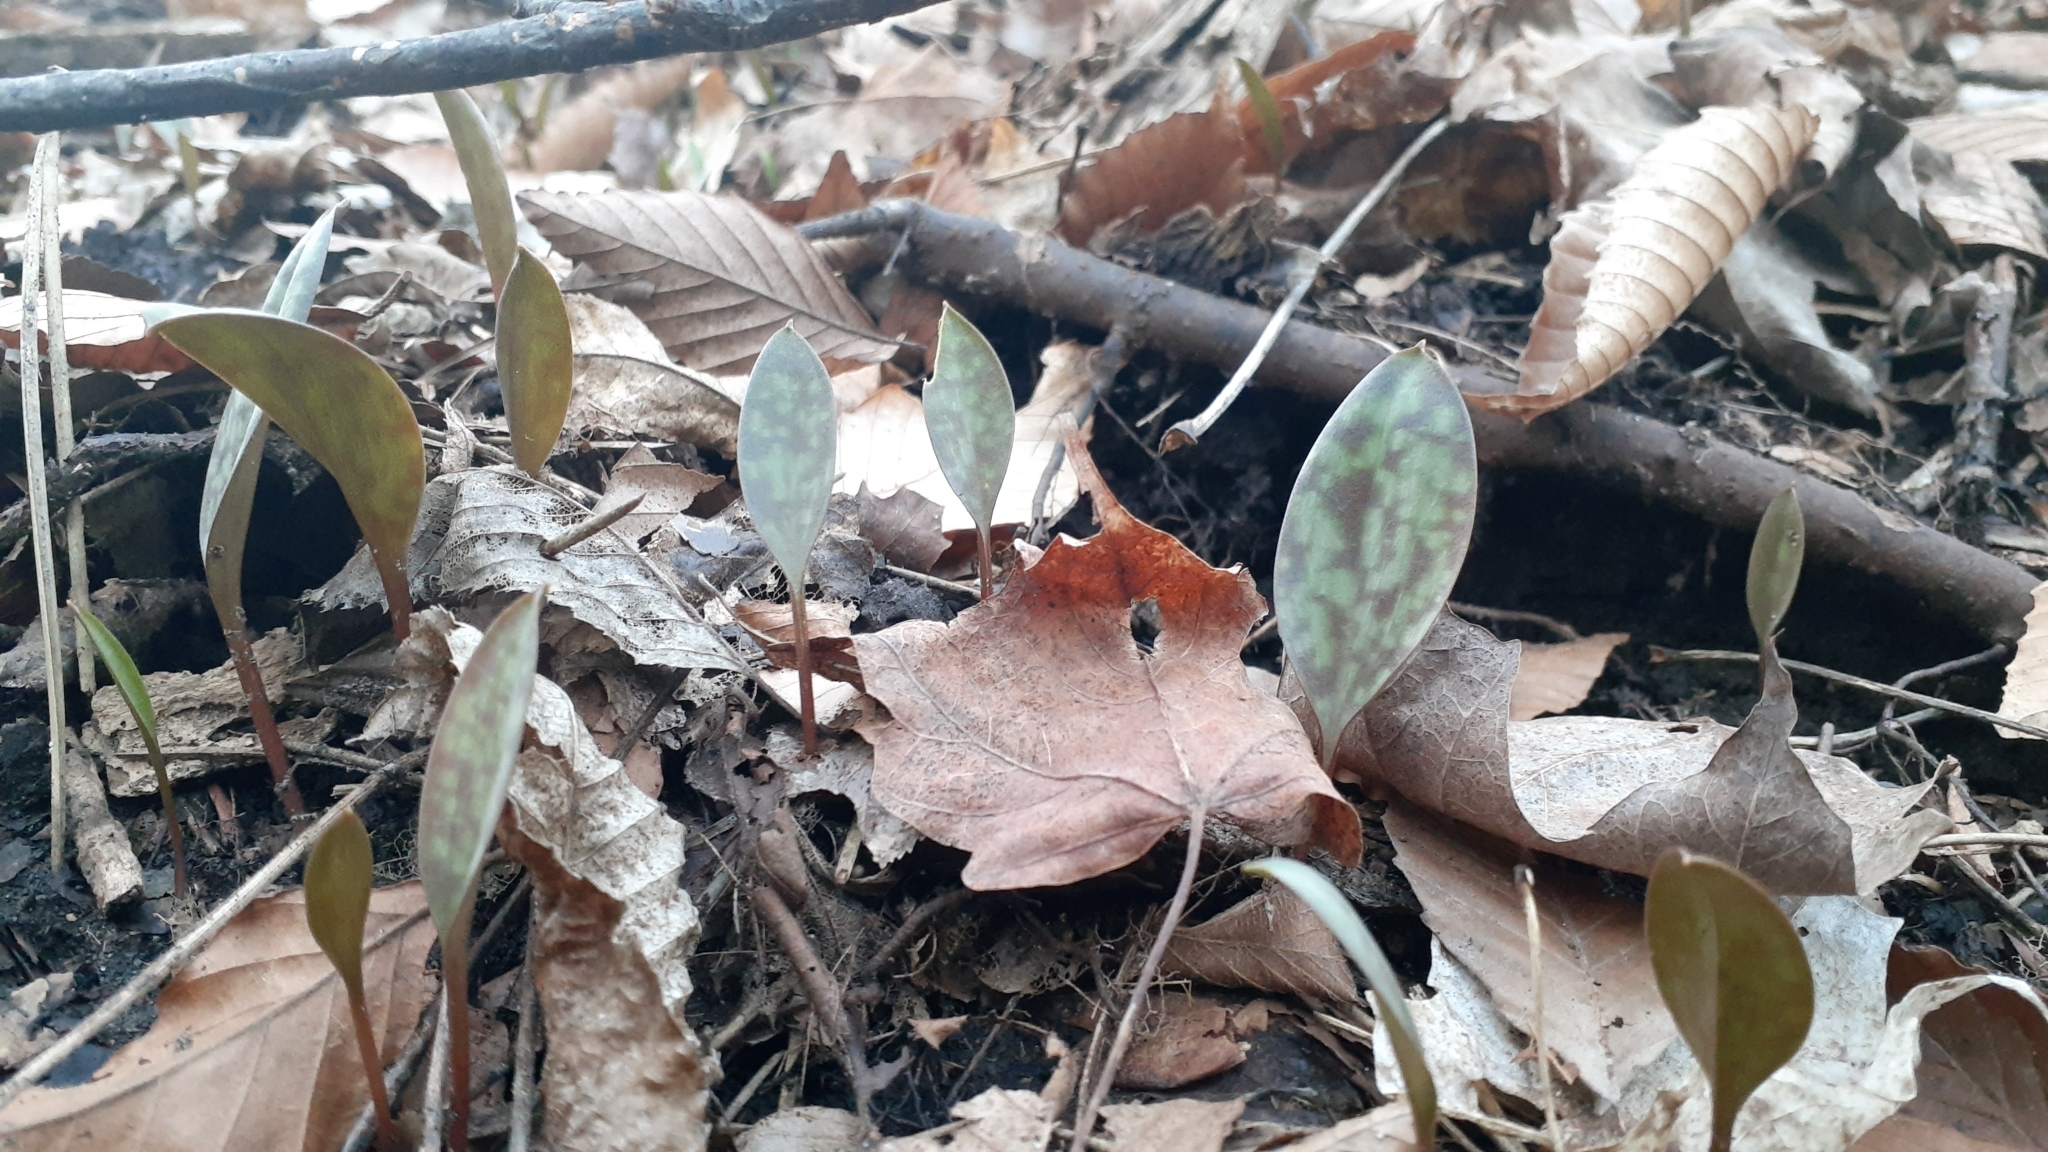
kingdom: Plantae
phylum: Tracheophyta
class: Liliopsida
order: Liliales
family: Liliaceae
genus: Erythronium
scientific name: Erythronium
